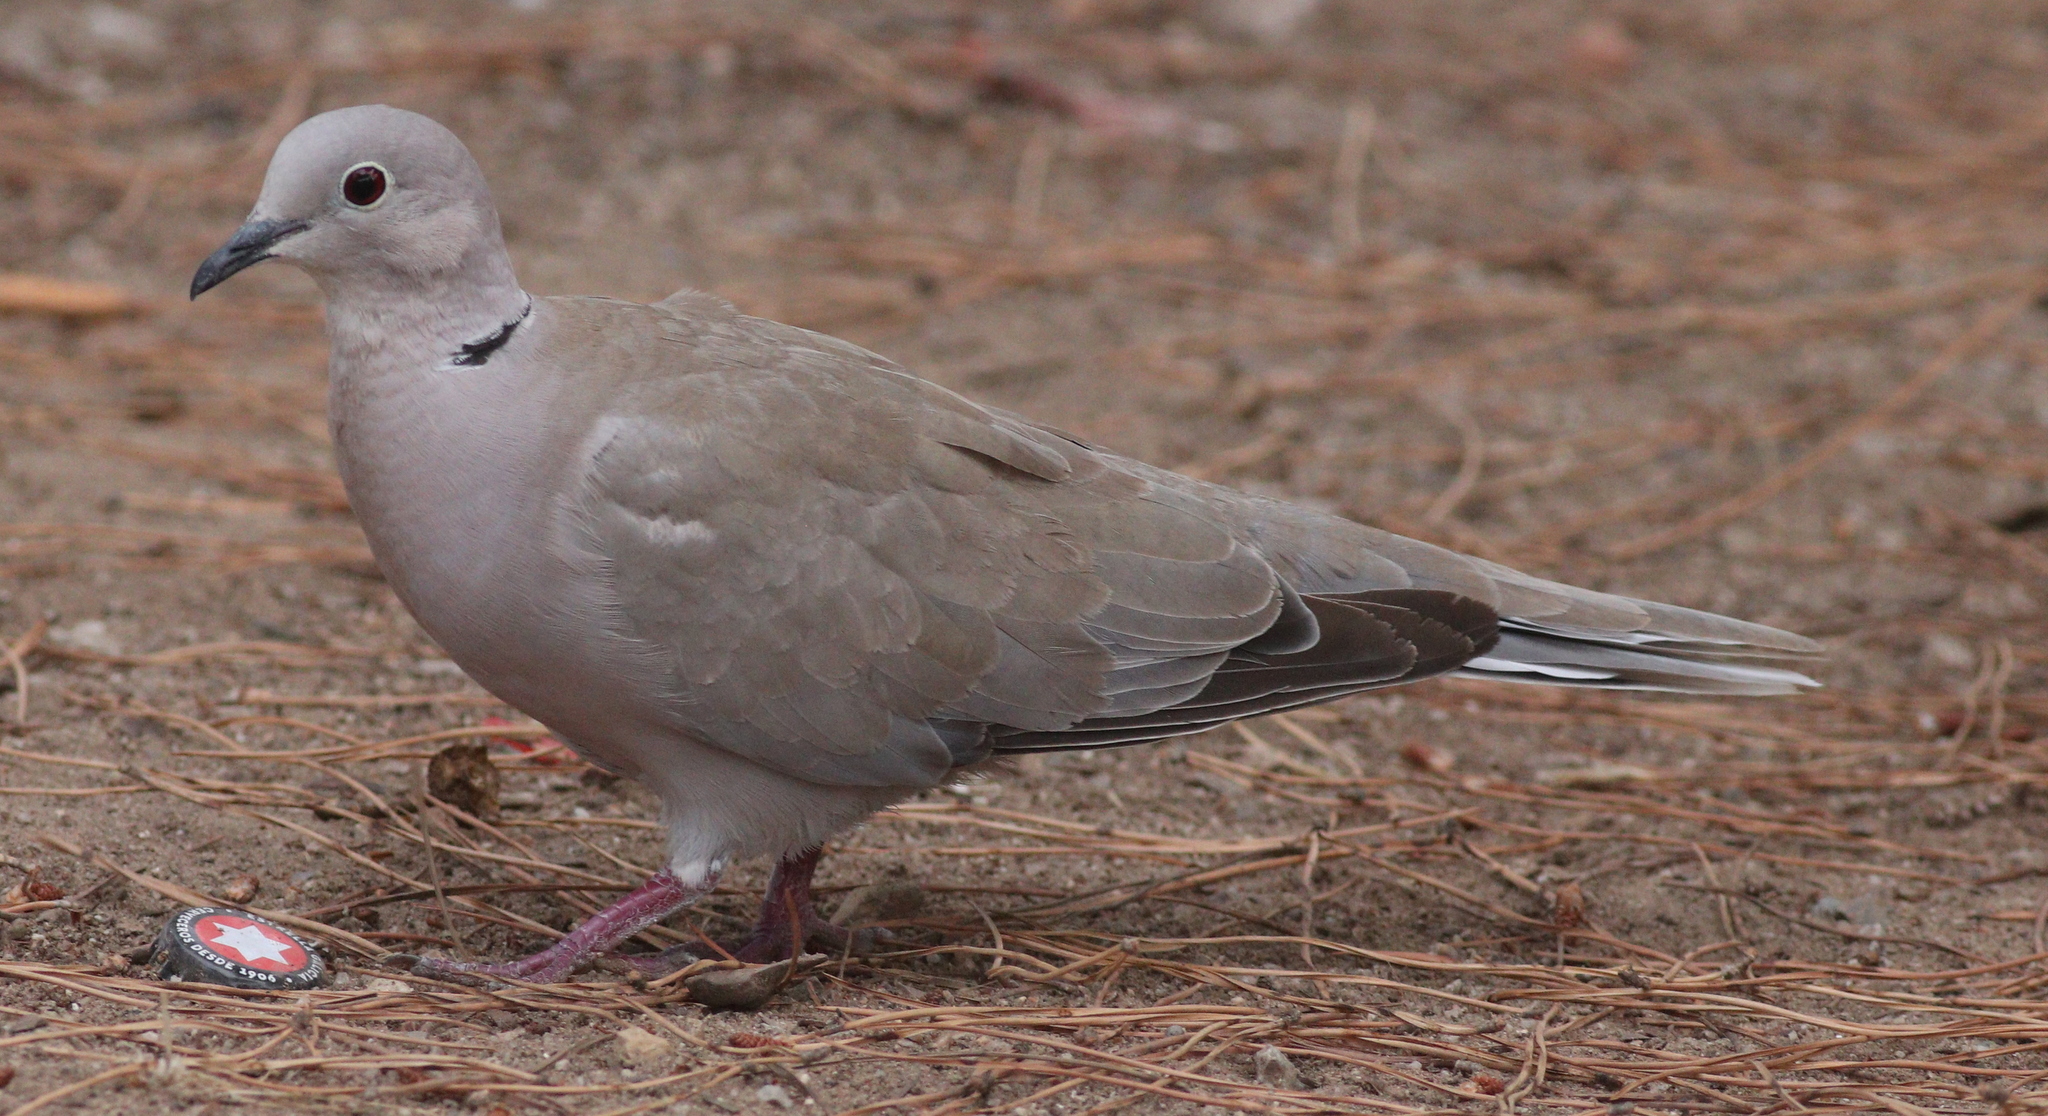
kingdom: Animalia
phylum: Chordata
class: Aves
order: Columbiformes
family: Columbidae
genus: Streptopelia
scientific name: Streptopelia decaocto
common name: Eurasian collared dove
